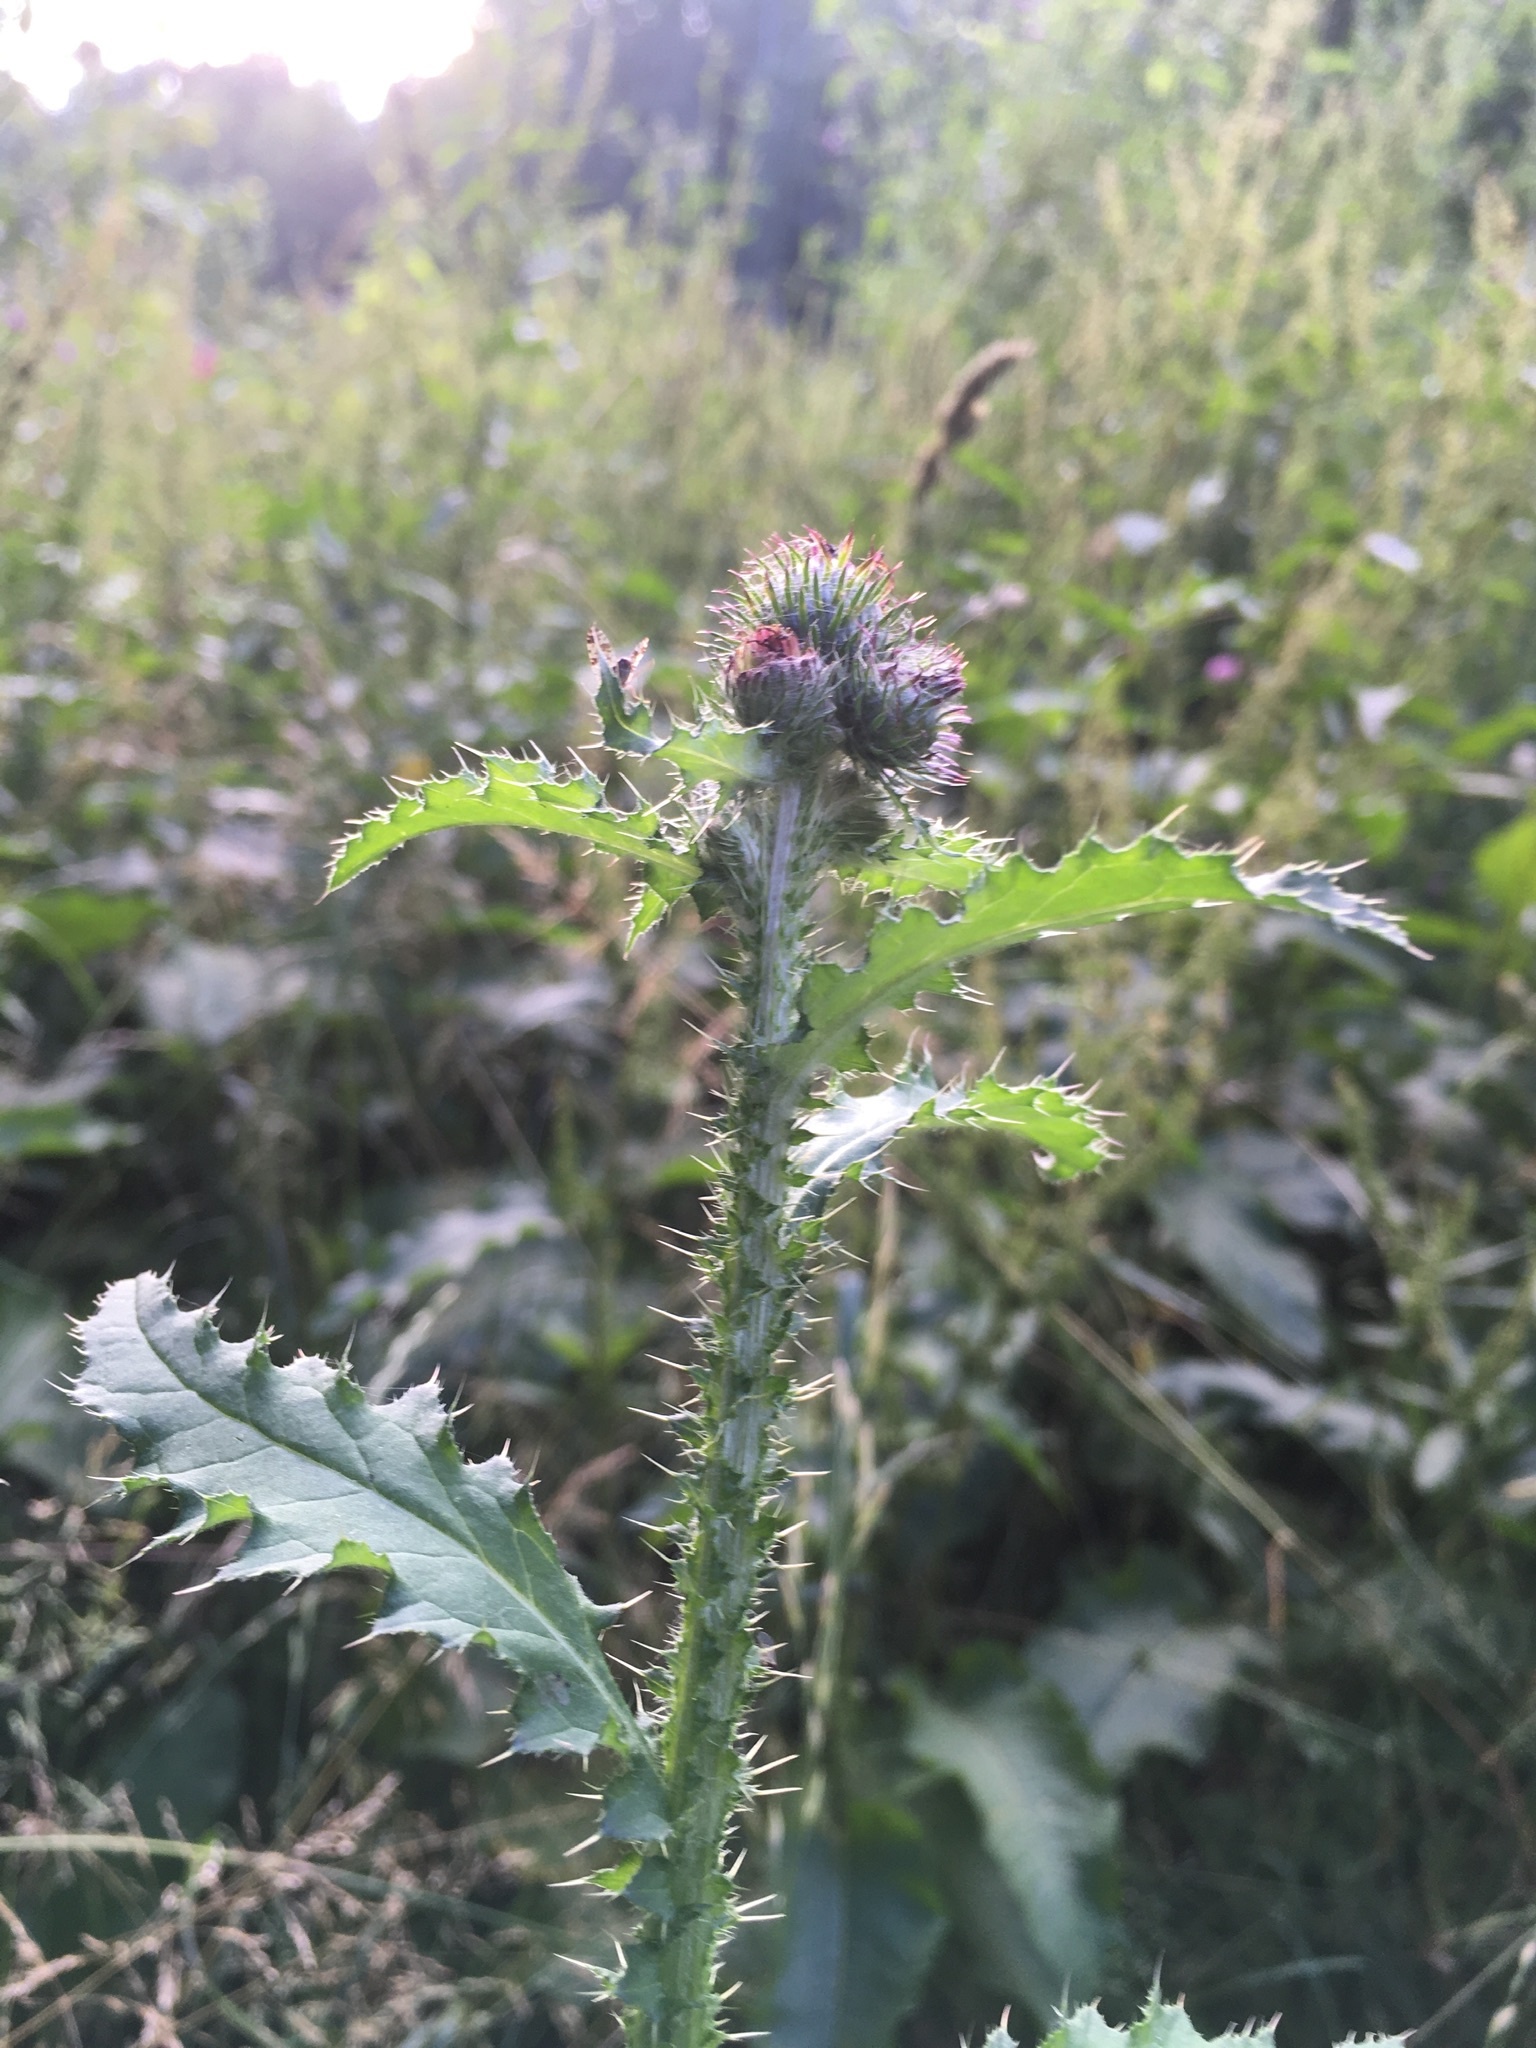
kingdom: Plantae
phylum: Tracheophyta
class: Magnoliopsida
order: Asterales
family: Asteraceae
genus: Carduus
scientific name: Carduus crispus
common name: Welted thistle
